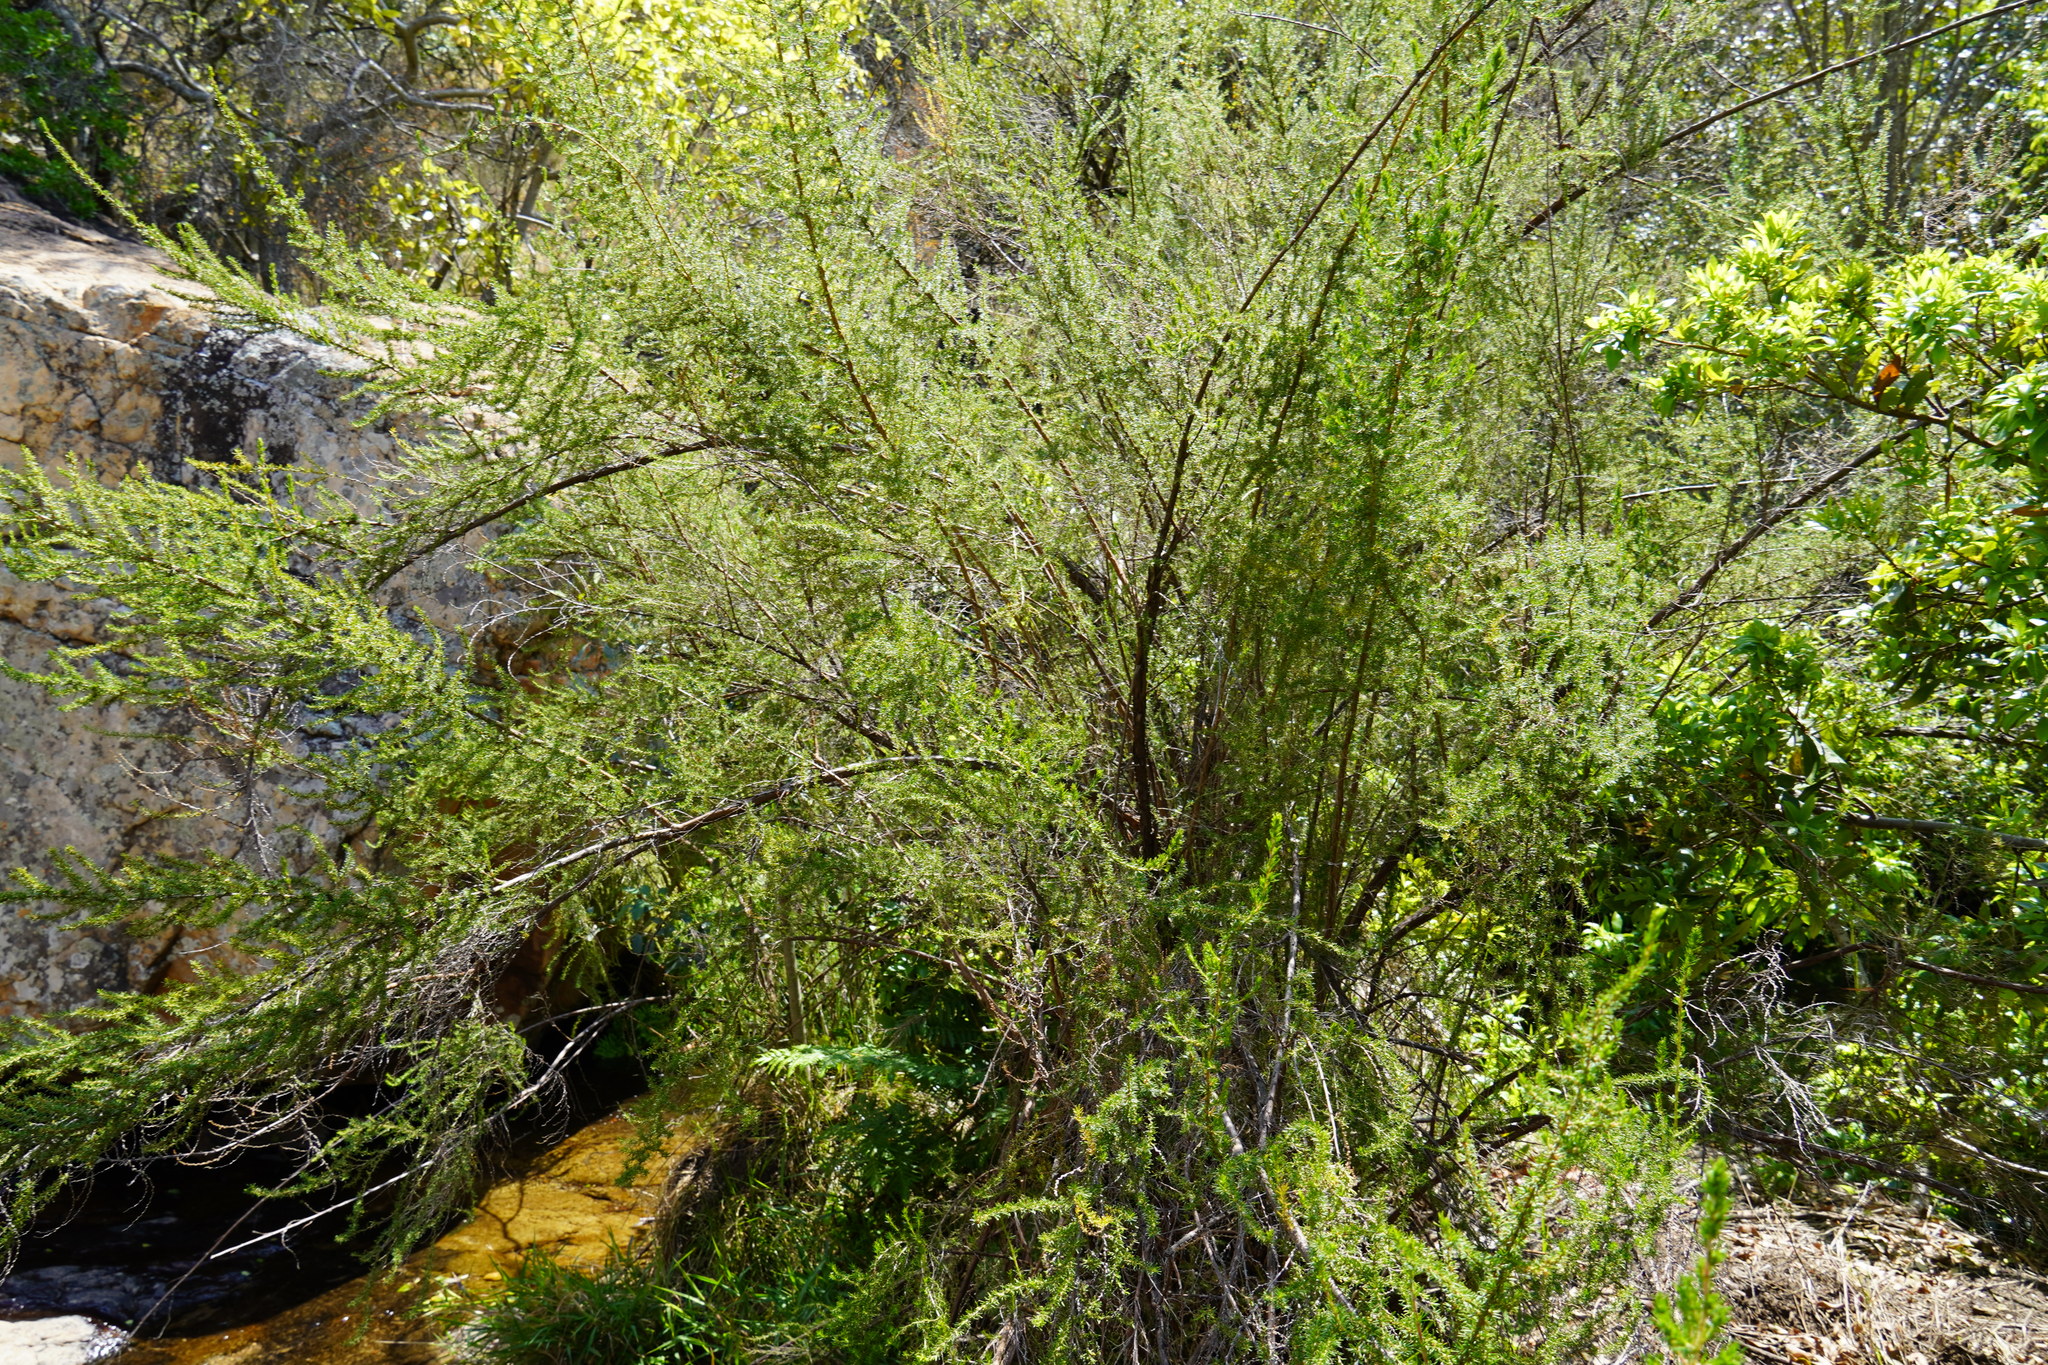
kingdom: Plantae
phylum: Tracheophyta
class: Magnoliopsida
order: Rosales
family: Rosaceae
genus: Cliffortia
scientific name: Cliffortia linearifolia
